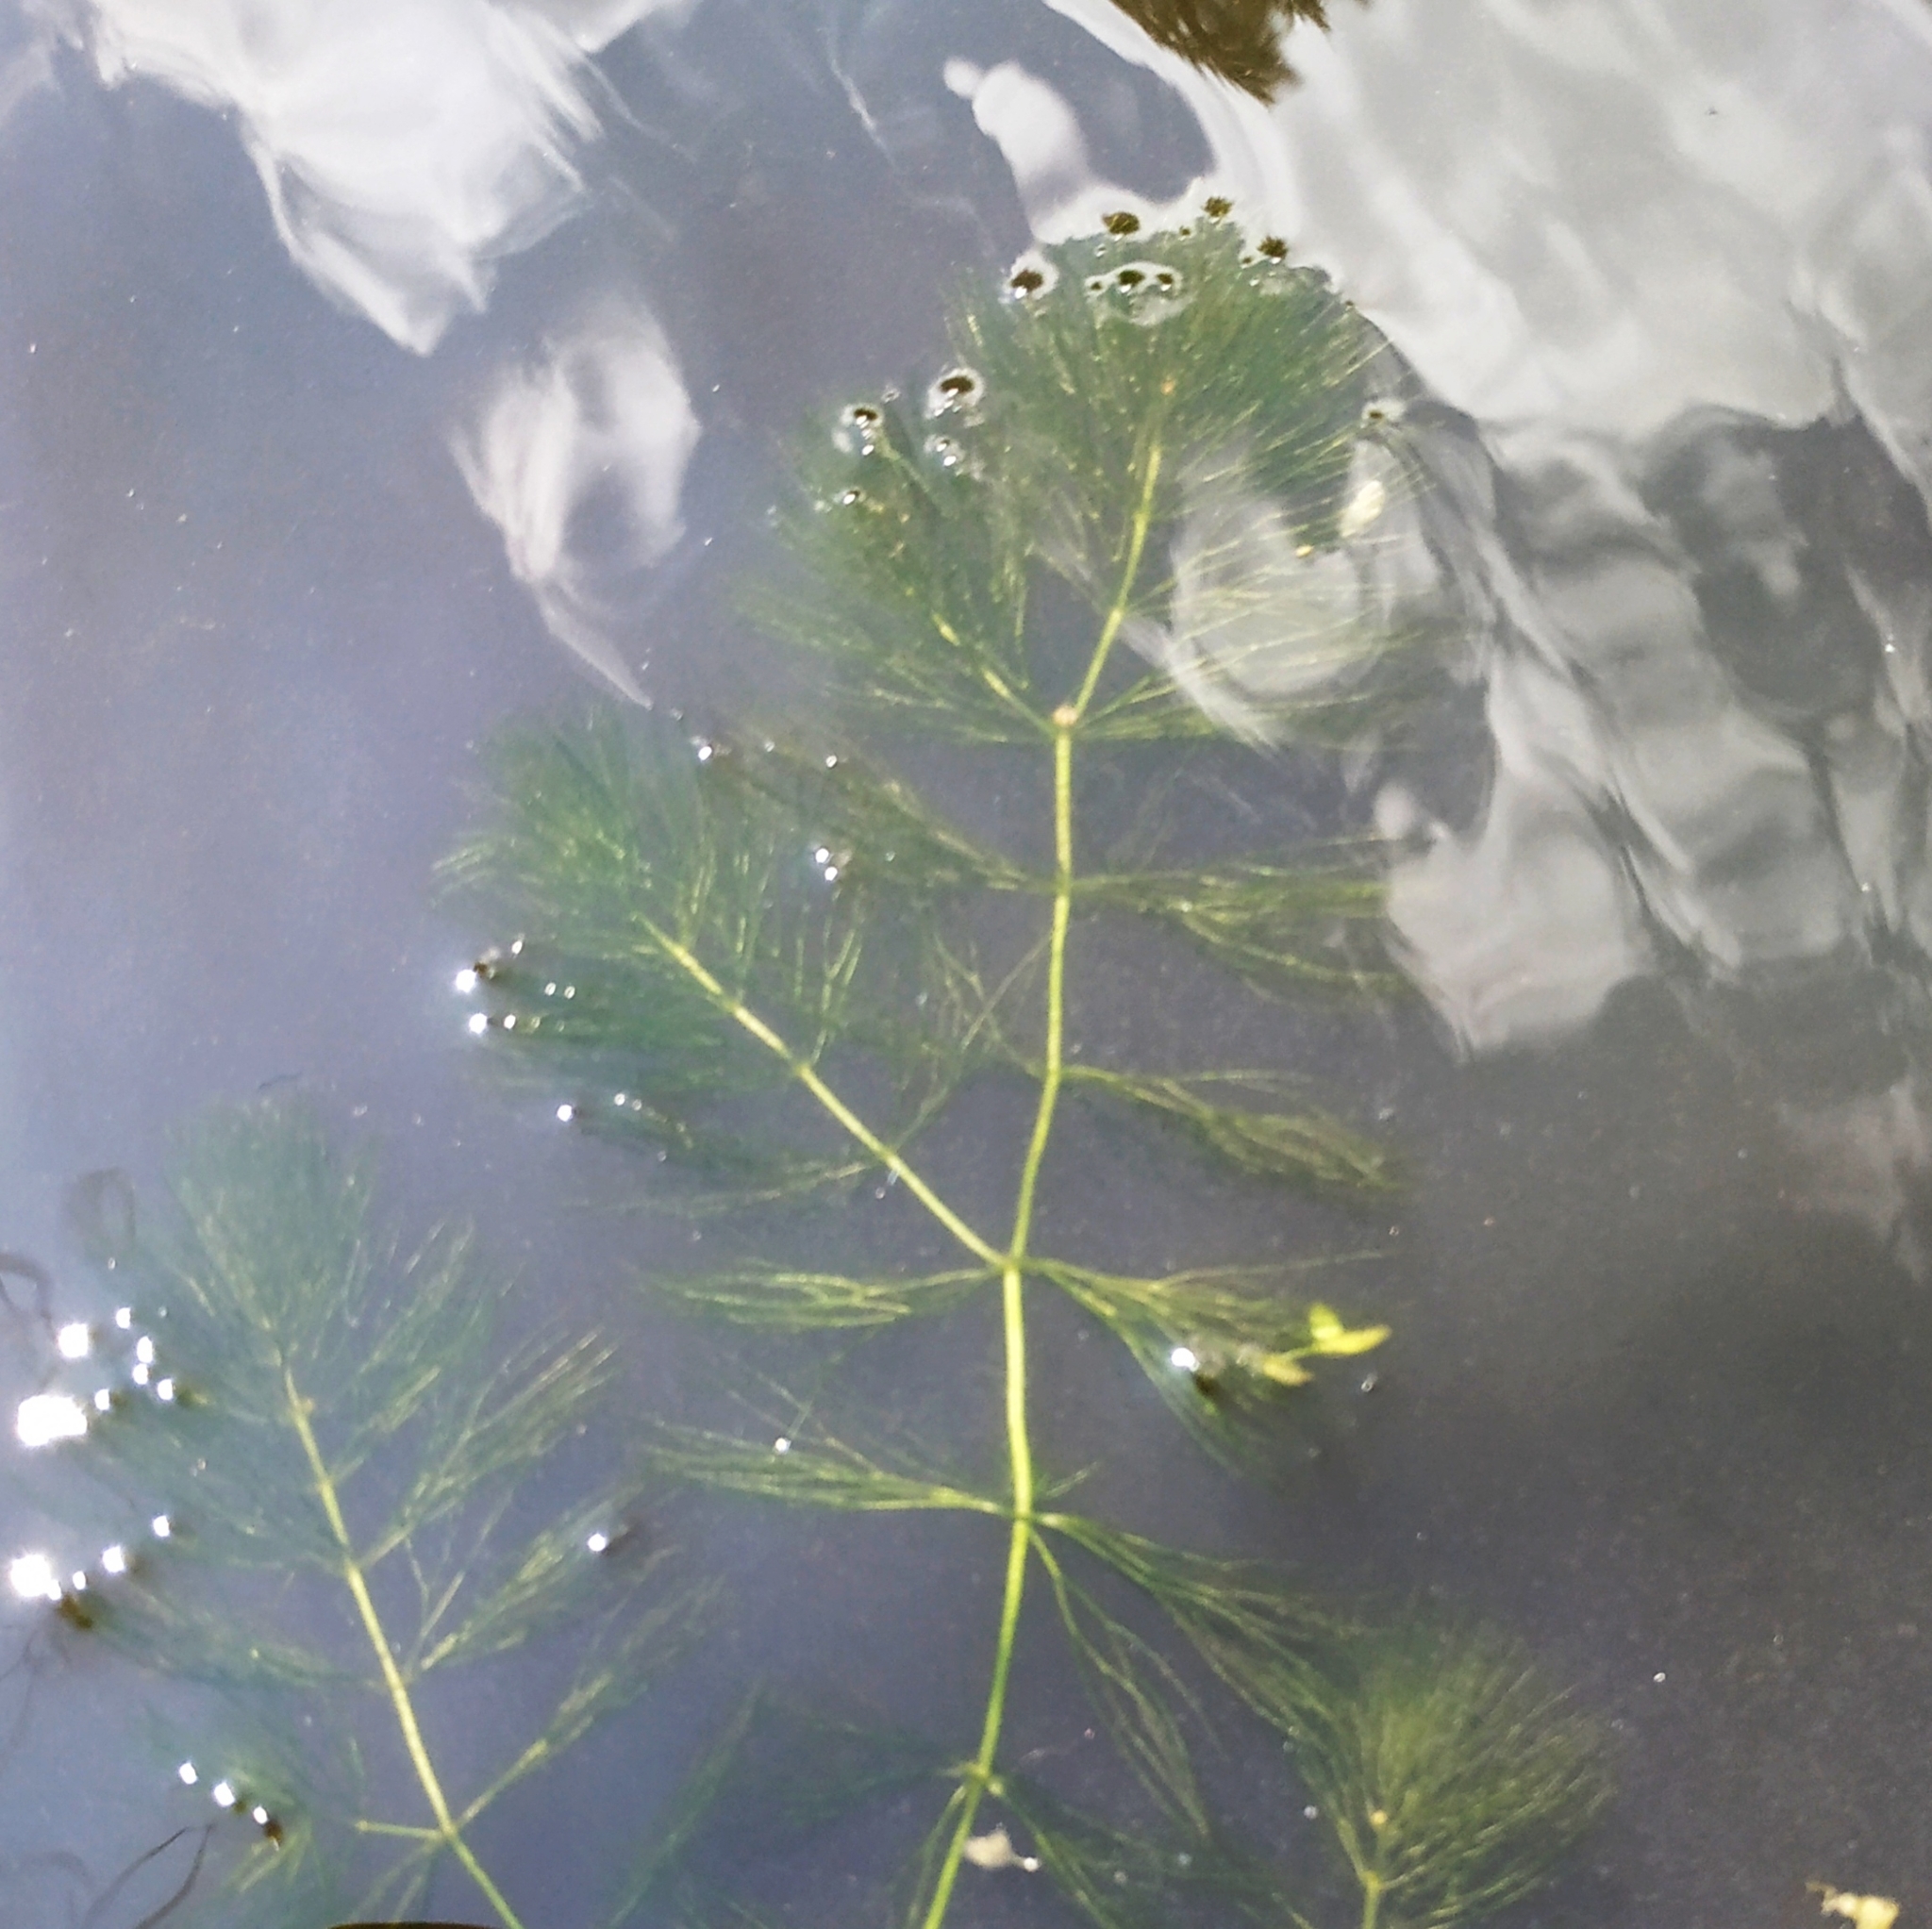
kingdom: Plantae
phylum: Tracheophyta
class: Magnoliopsida
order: Ceratophyllales
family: Ceratophyllaceae
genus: Ceratophyllum
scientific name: Ceratophyllum submersum
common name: Soft hornwort
